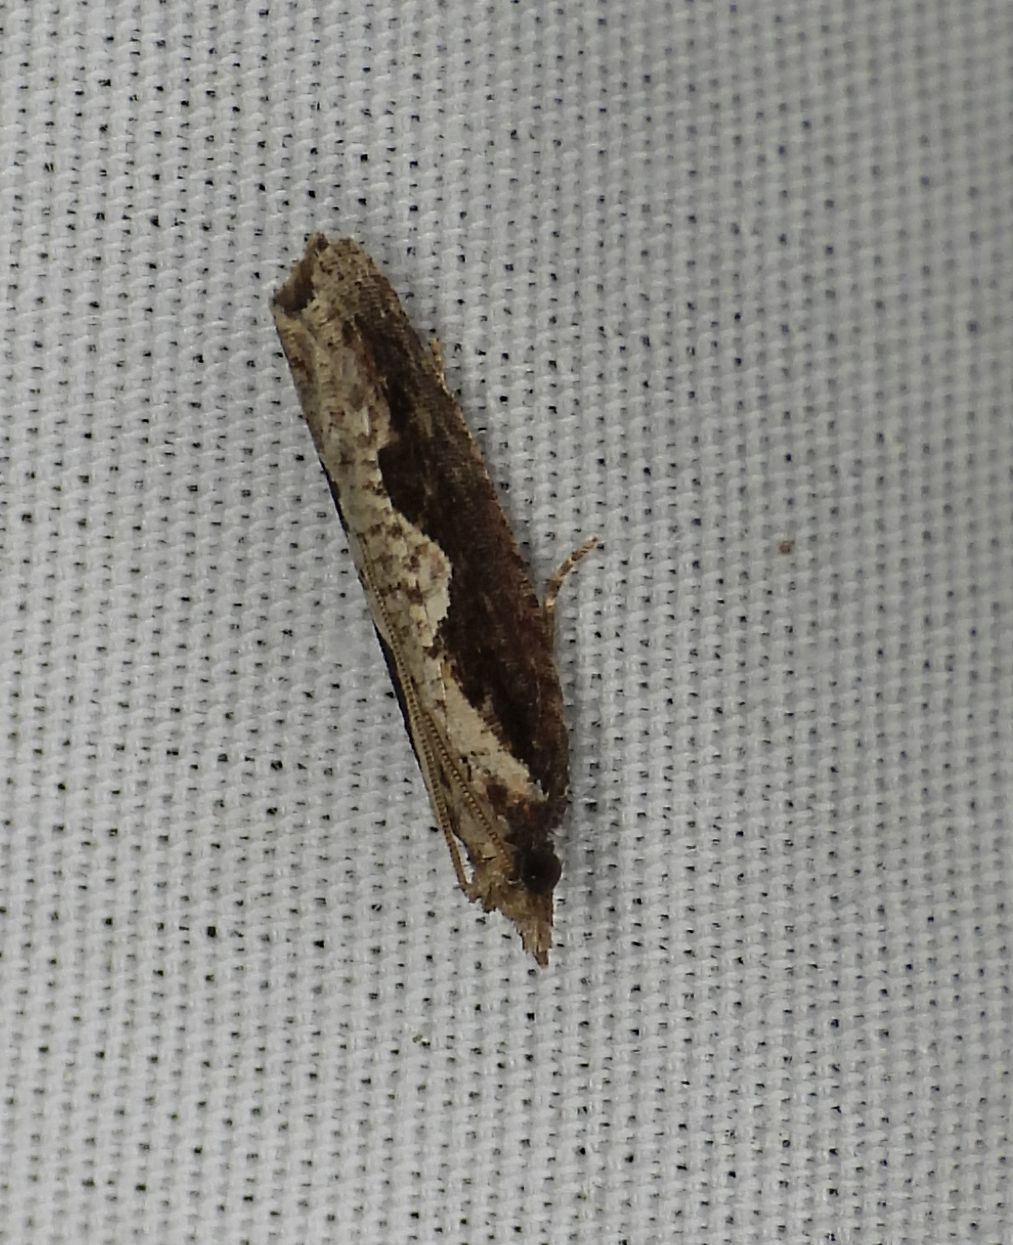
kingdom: Animalia
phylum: Arthropoda
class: Insecta
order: Lepidoptera
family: Tortricidae
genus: Epinotia
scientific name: Epinotia lindana
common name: Diamondback epinotia moth
